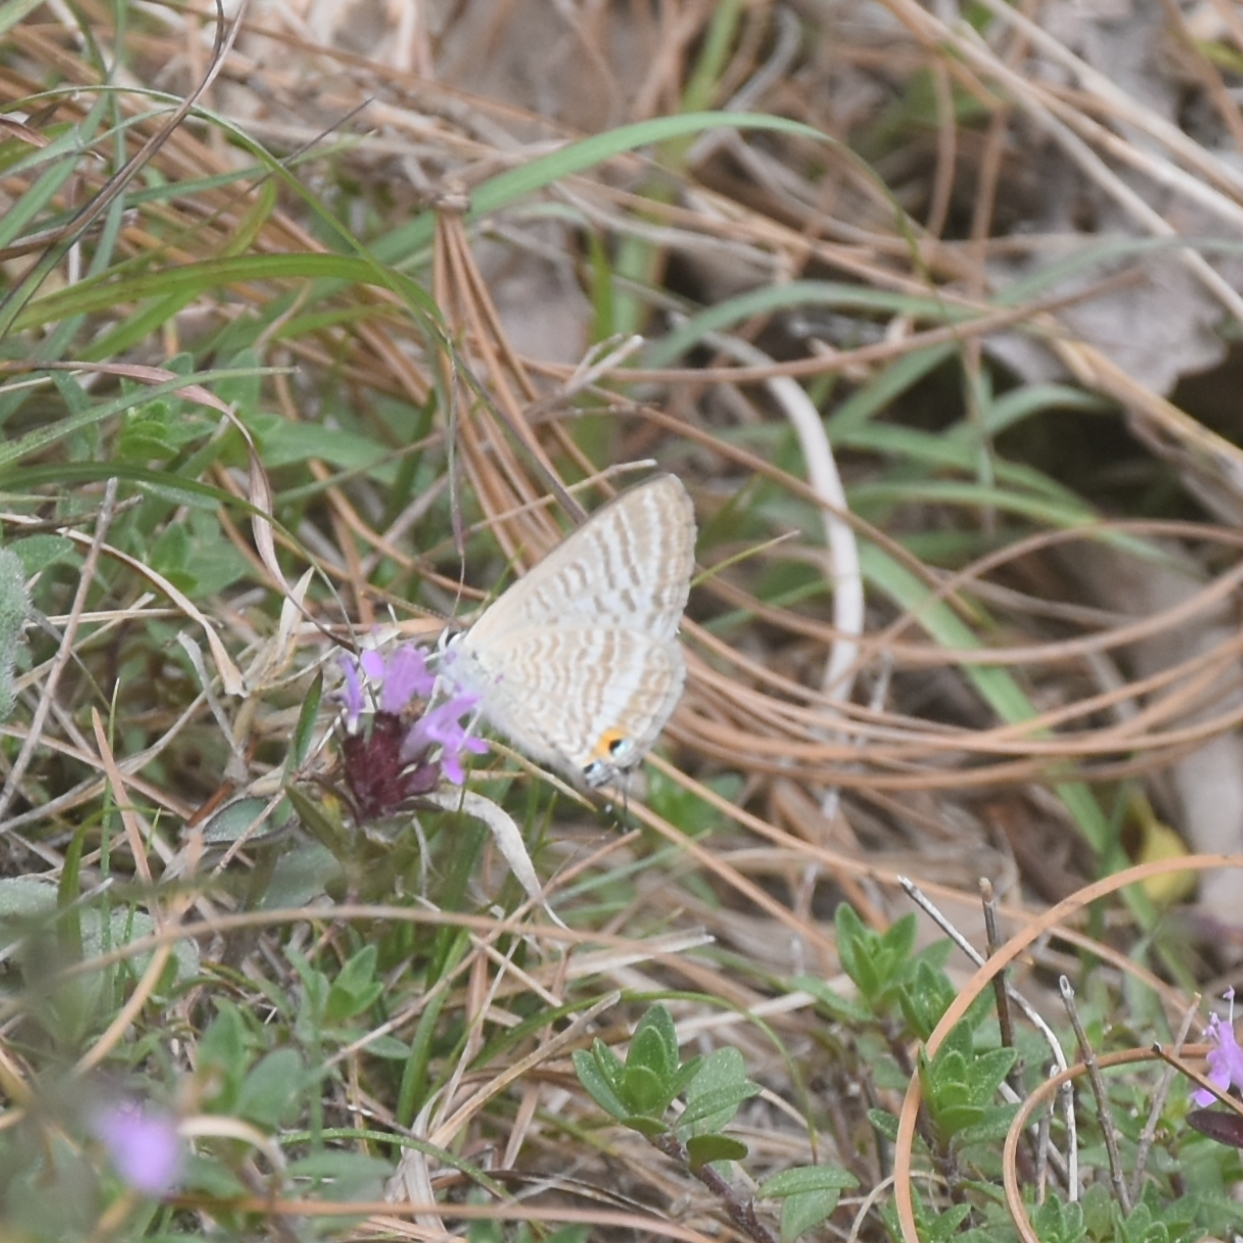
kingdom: Animalia
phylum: Arthropoda
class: Insecta
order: Lepidoptera
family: Lycaenidae
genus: Lampides
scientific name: Lampides boeticus
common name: Long-tailed blue
